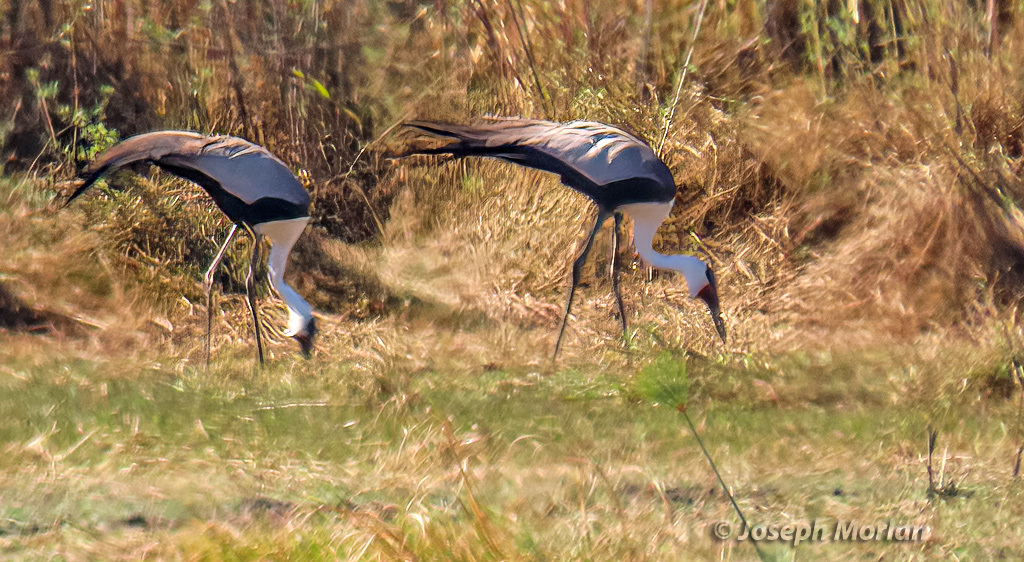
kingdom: Animalia
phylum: Chordata
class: Aves
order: Gruiformes
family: Gruidae
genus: Bugeranus
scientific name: Bugeranus carunculatus
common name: Wattled crane
